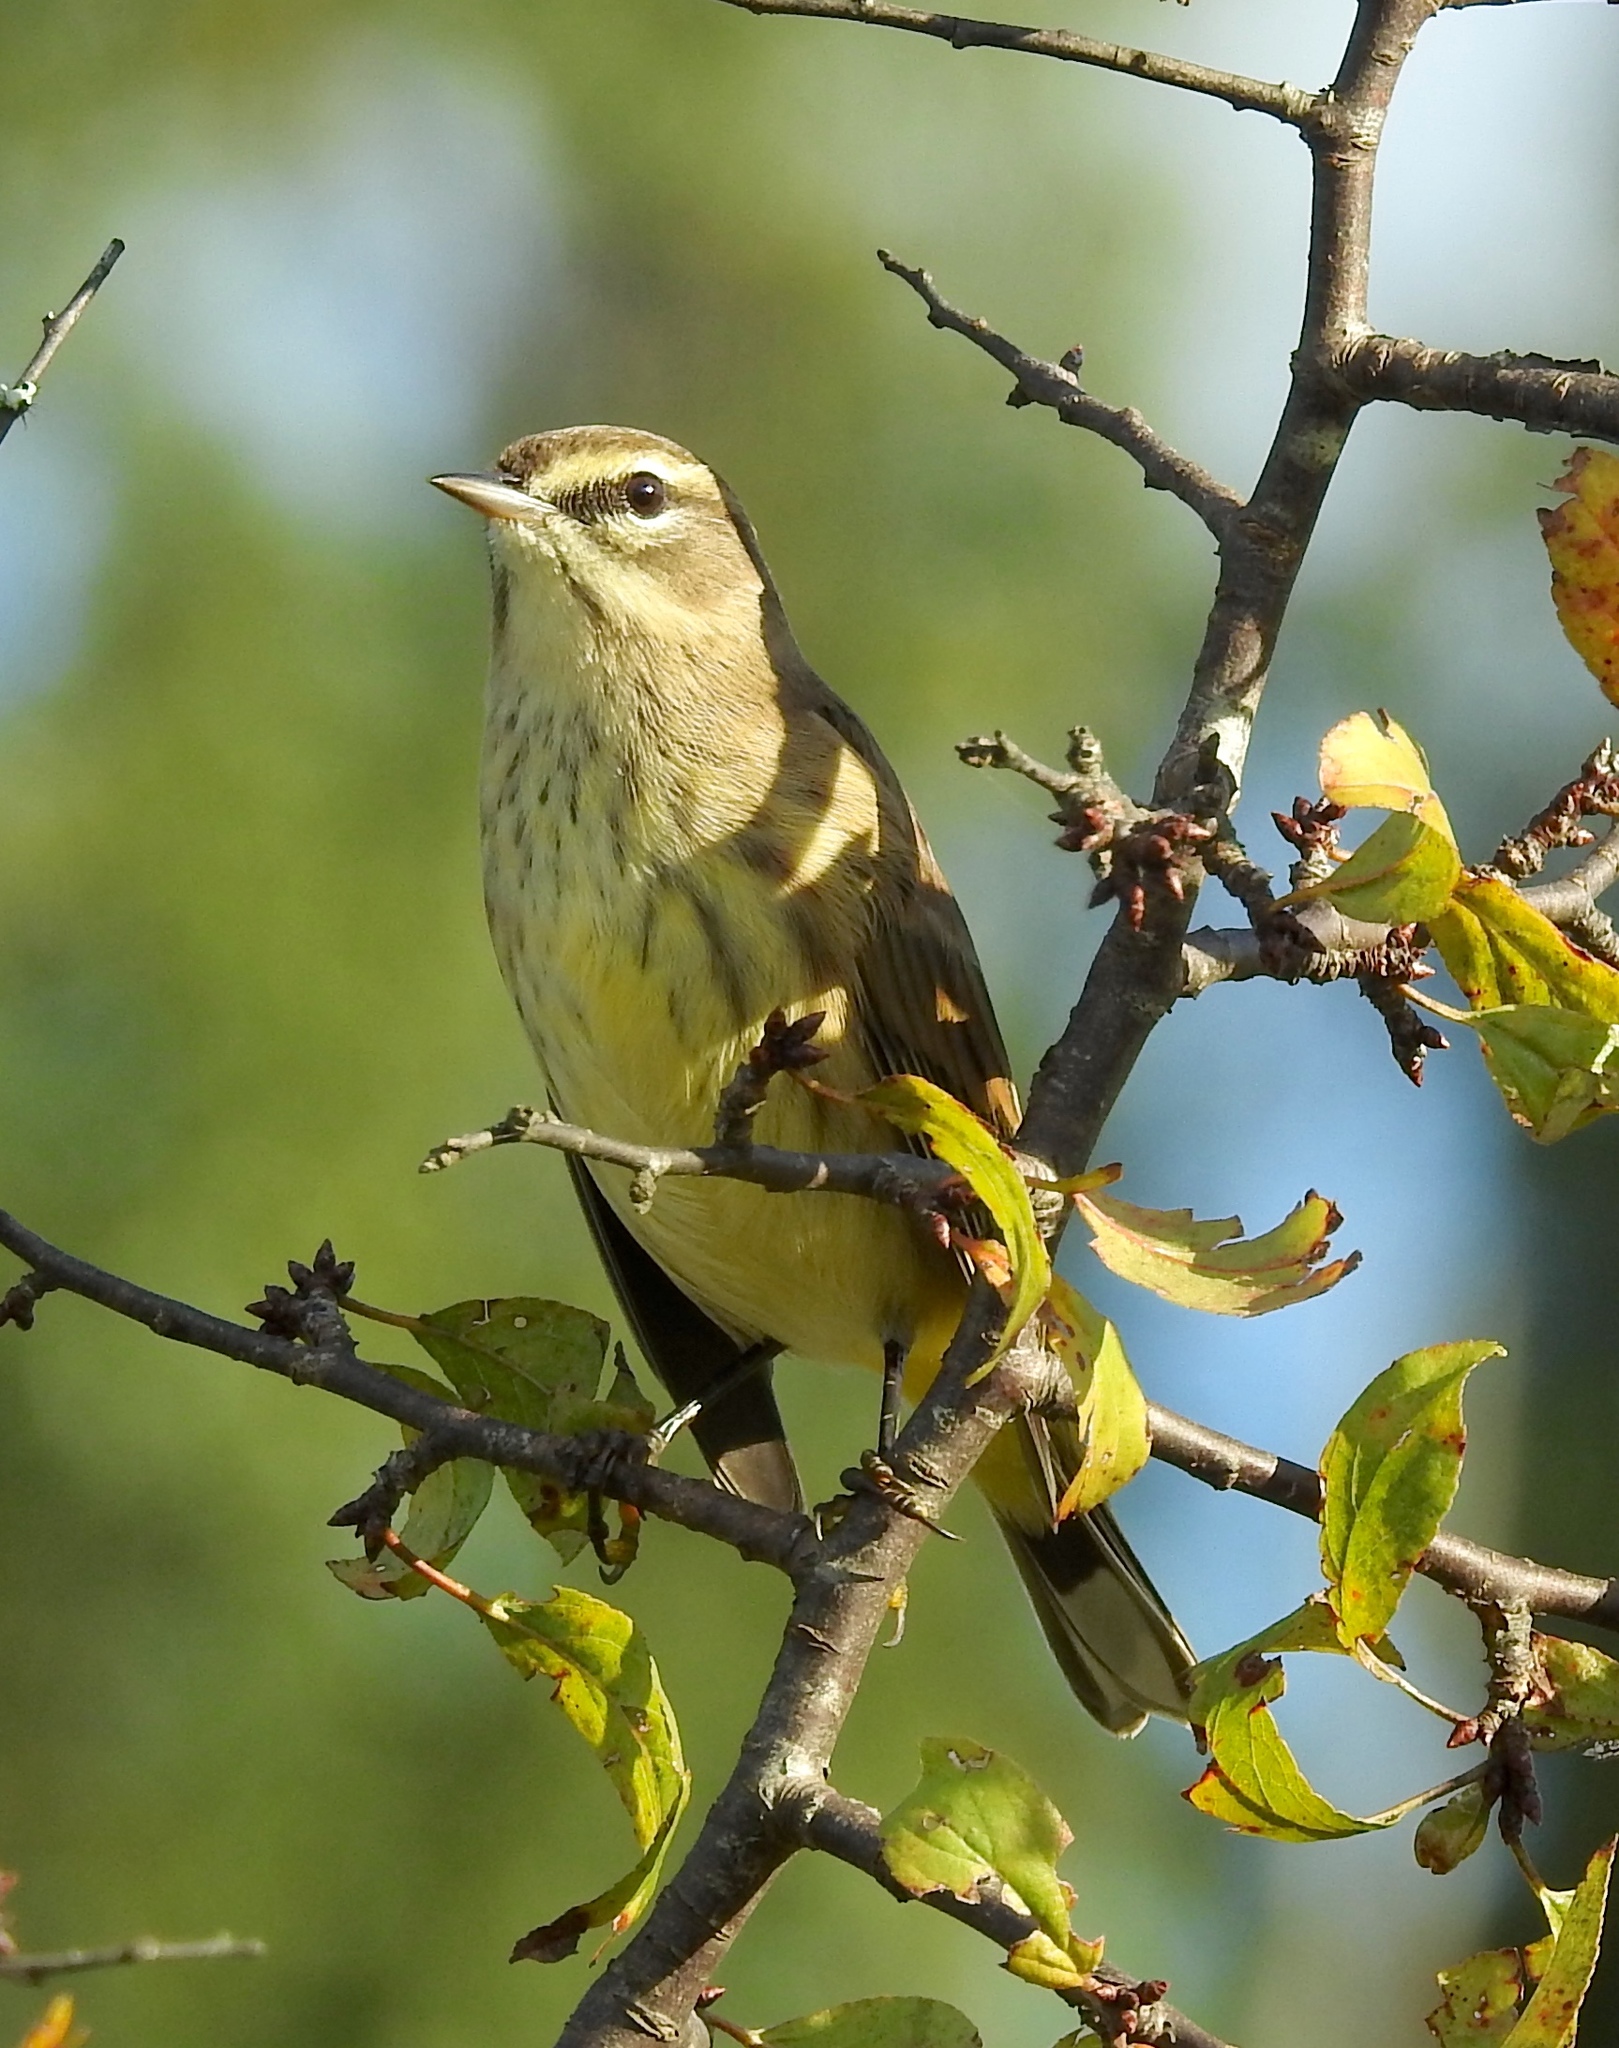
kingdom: Animalia
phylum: Chordata
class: Aves
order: Passeriformes
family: Parulidae
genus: Setophaga
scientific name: Setophaga palmarum
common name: Palm warbler
